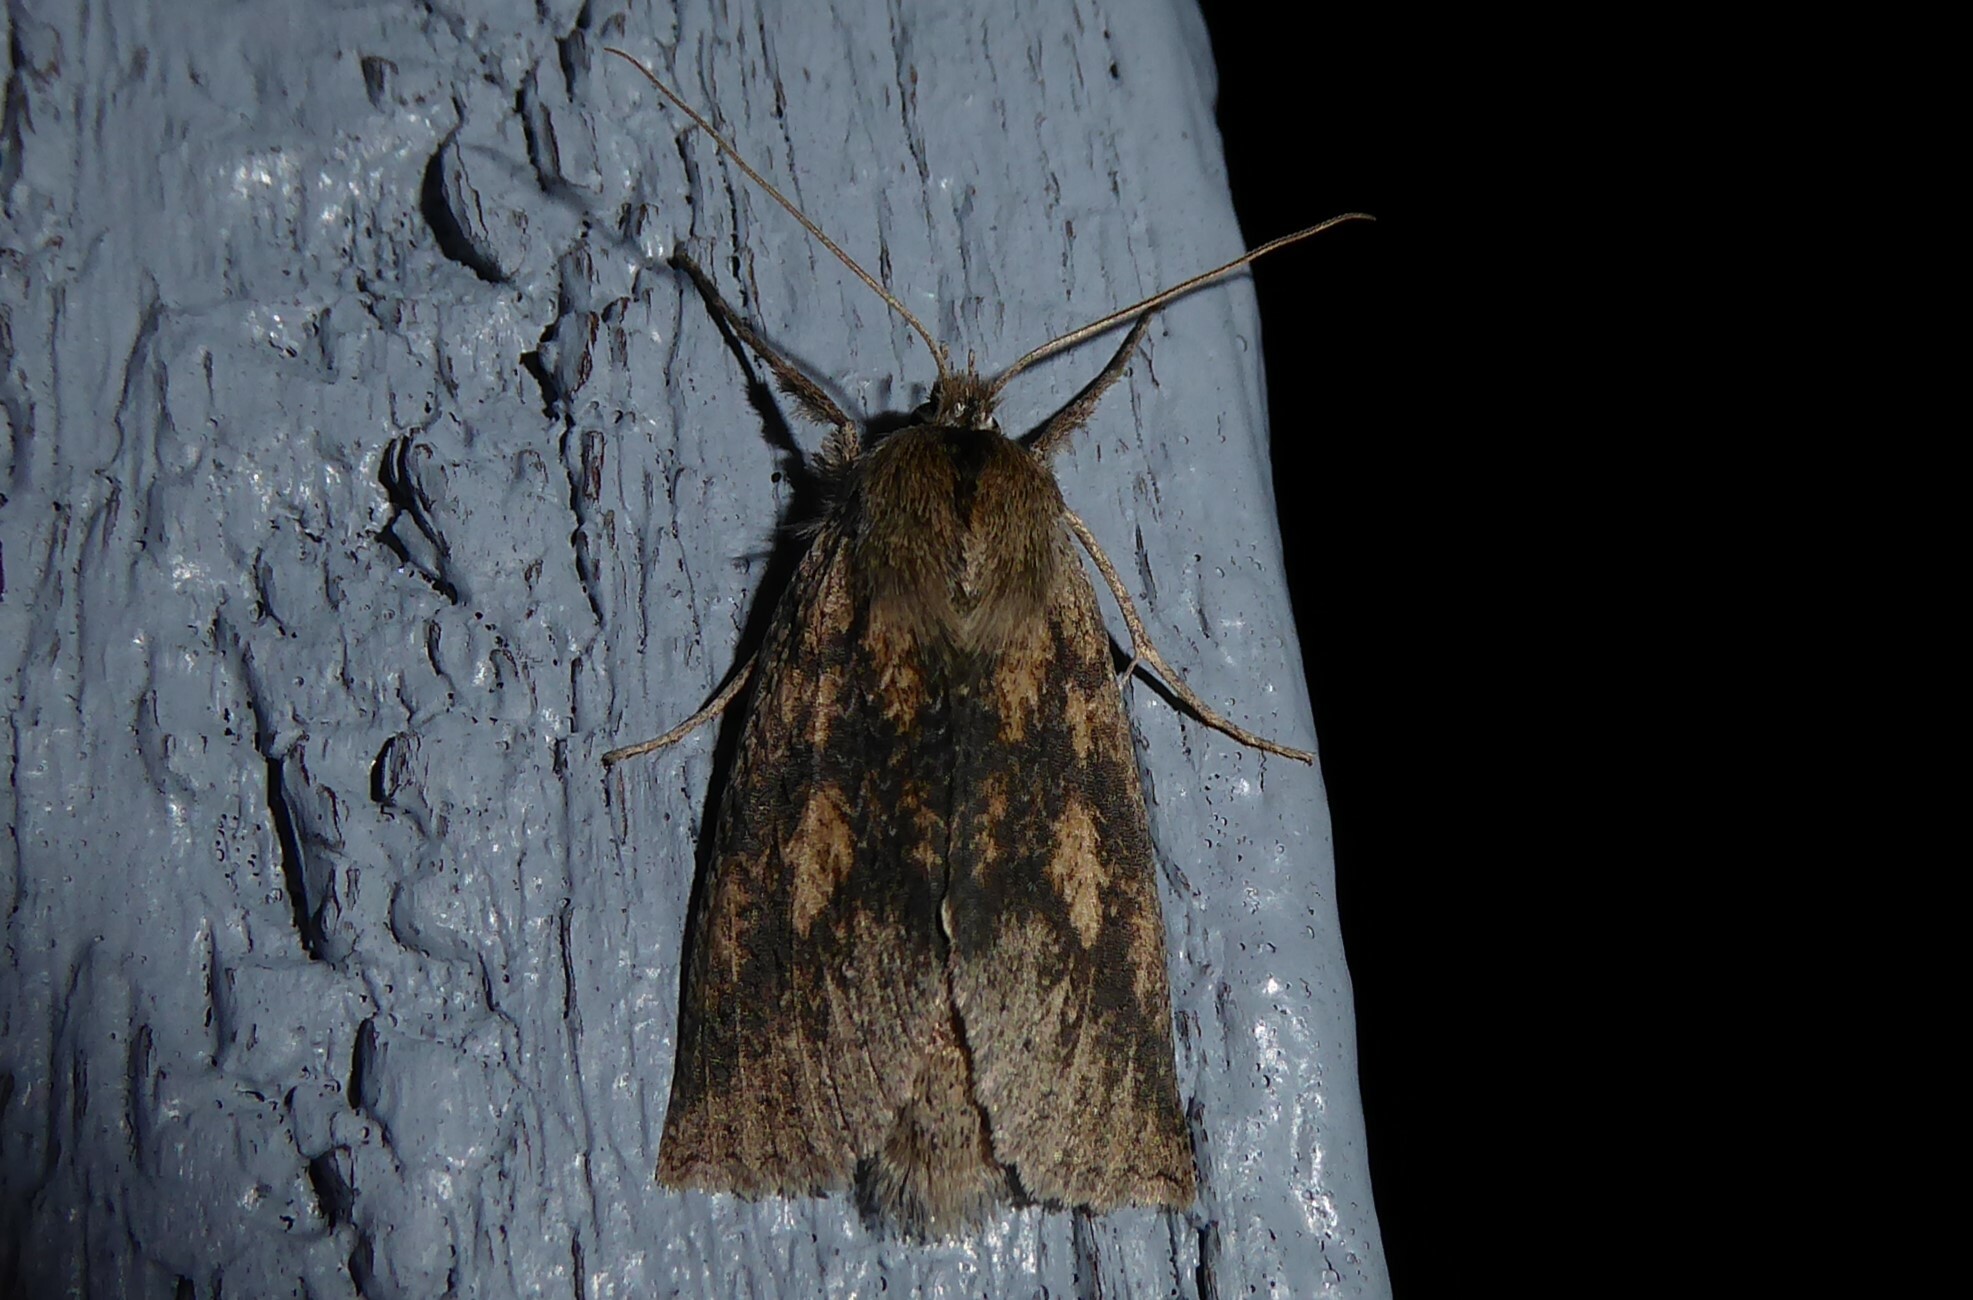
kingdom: Animalia
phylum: Arthropoda
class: Insecta
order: Lepidoptera
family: Geometridae
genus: Declana
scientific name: Declana leptomera
